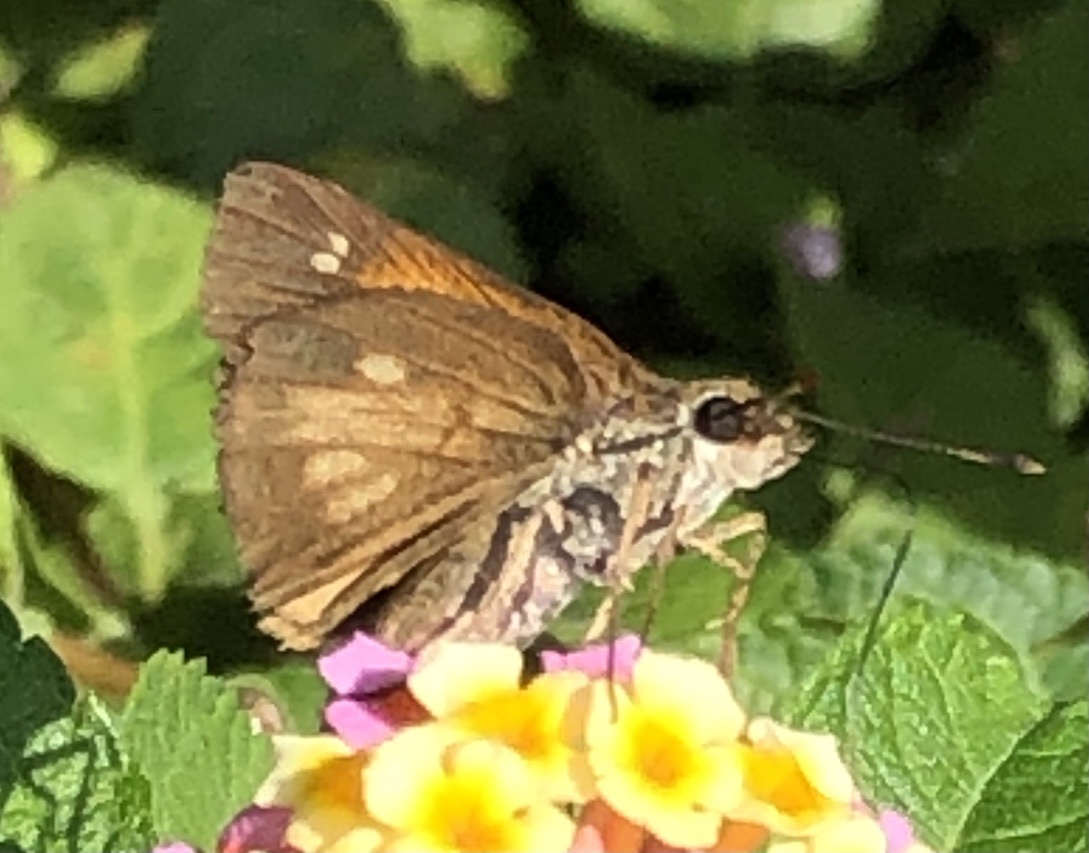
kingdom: Animalia
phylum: Arthropoda
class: Insecta
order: Lepidoptera
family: Hesperiidae
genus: Poanes
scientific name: Poanes viator
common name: Broad-winged skipper
